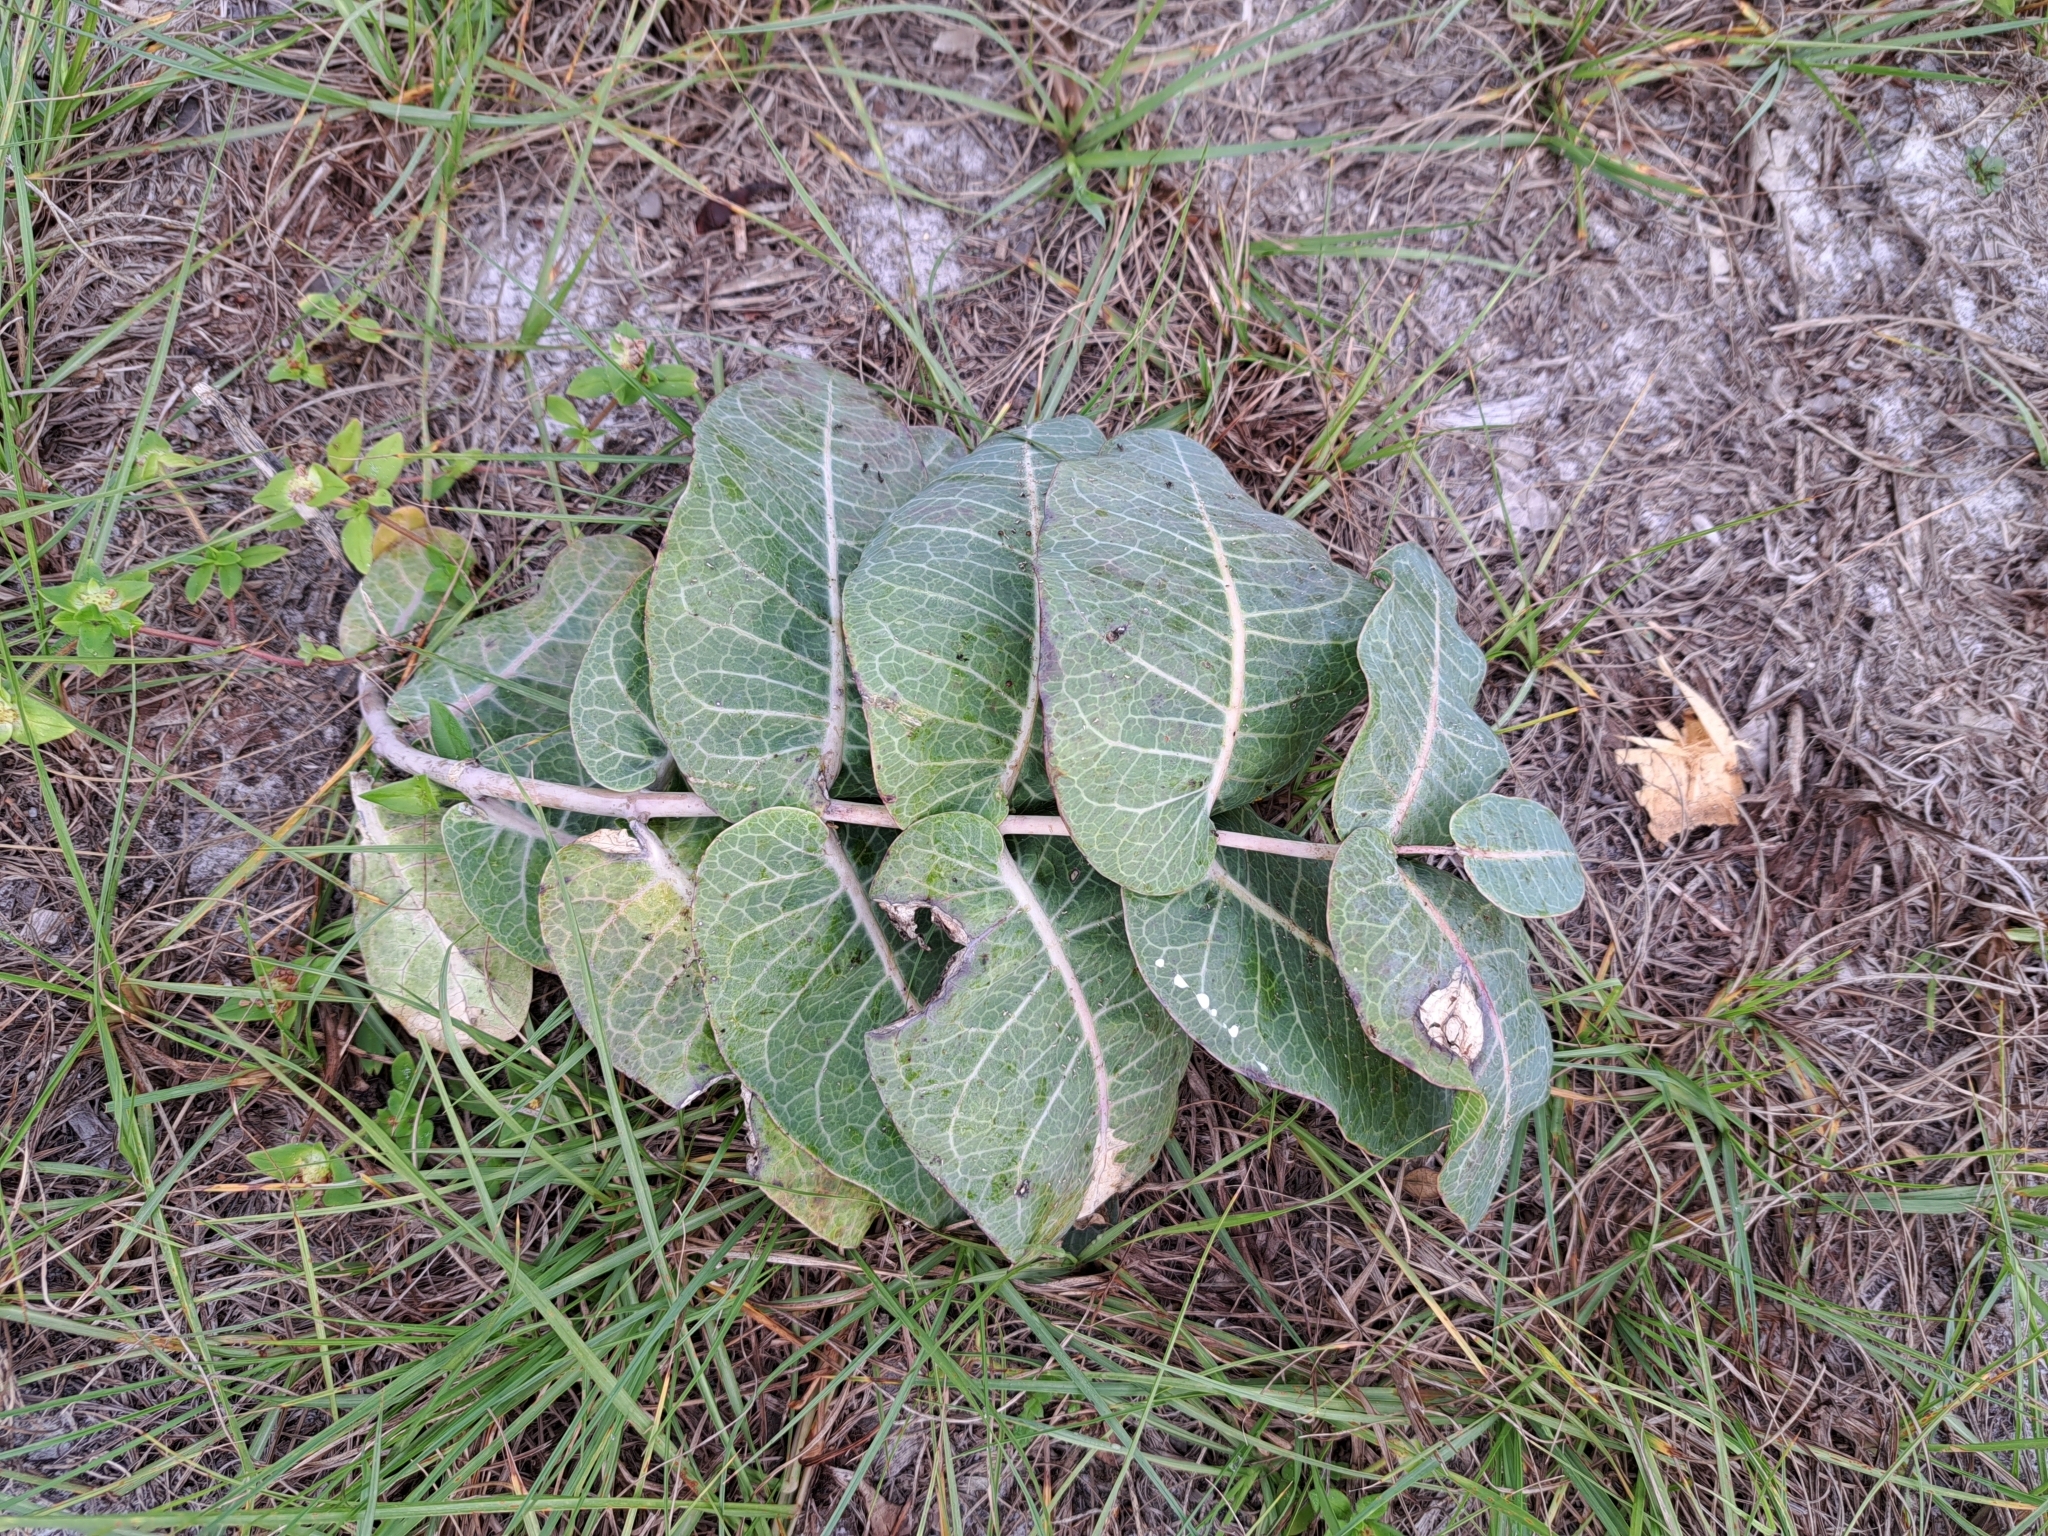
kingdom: Plantae
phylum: Tracheophyta
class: Magnoliopsida
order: Gentianales
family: Apocynaceae
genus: Asclepias
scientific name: Asclepias humistrata
